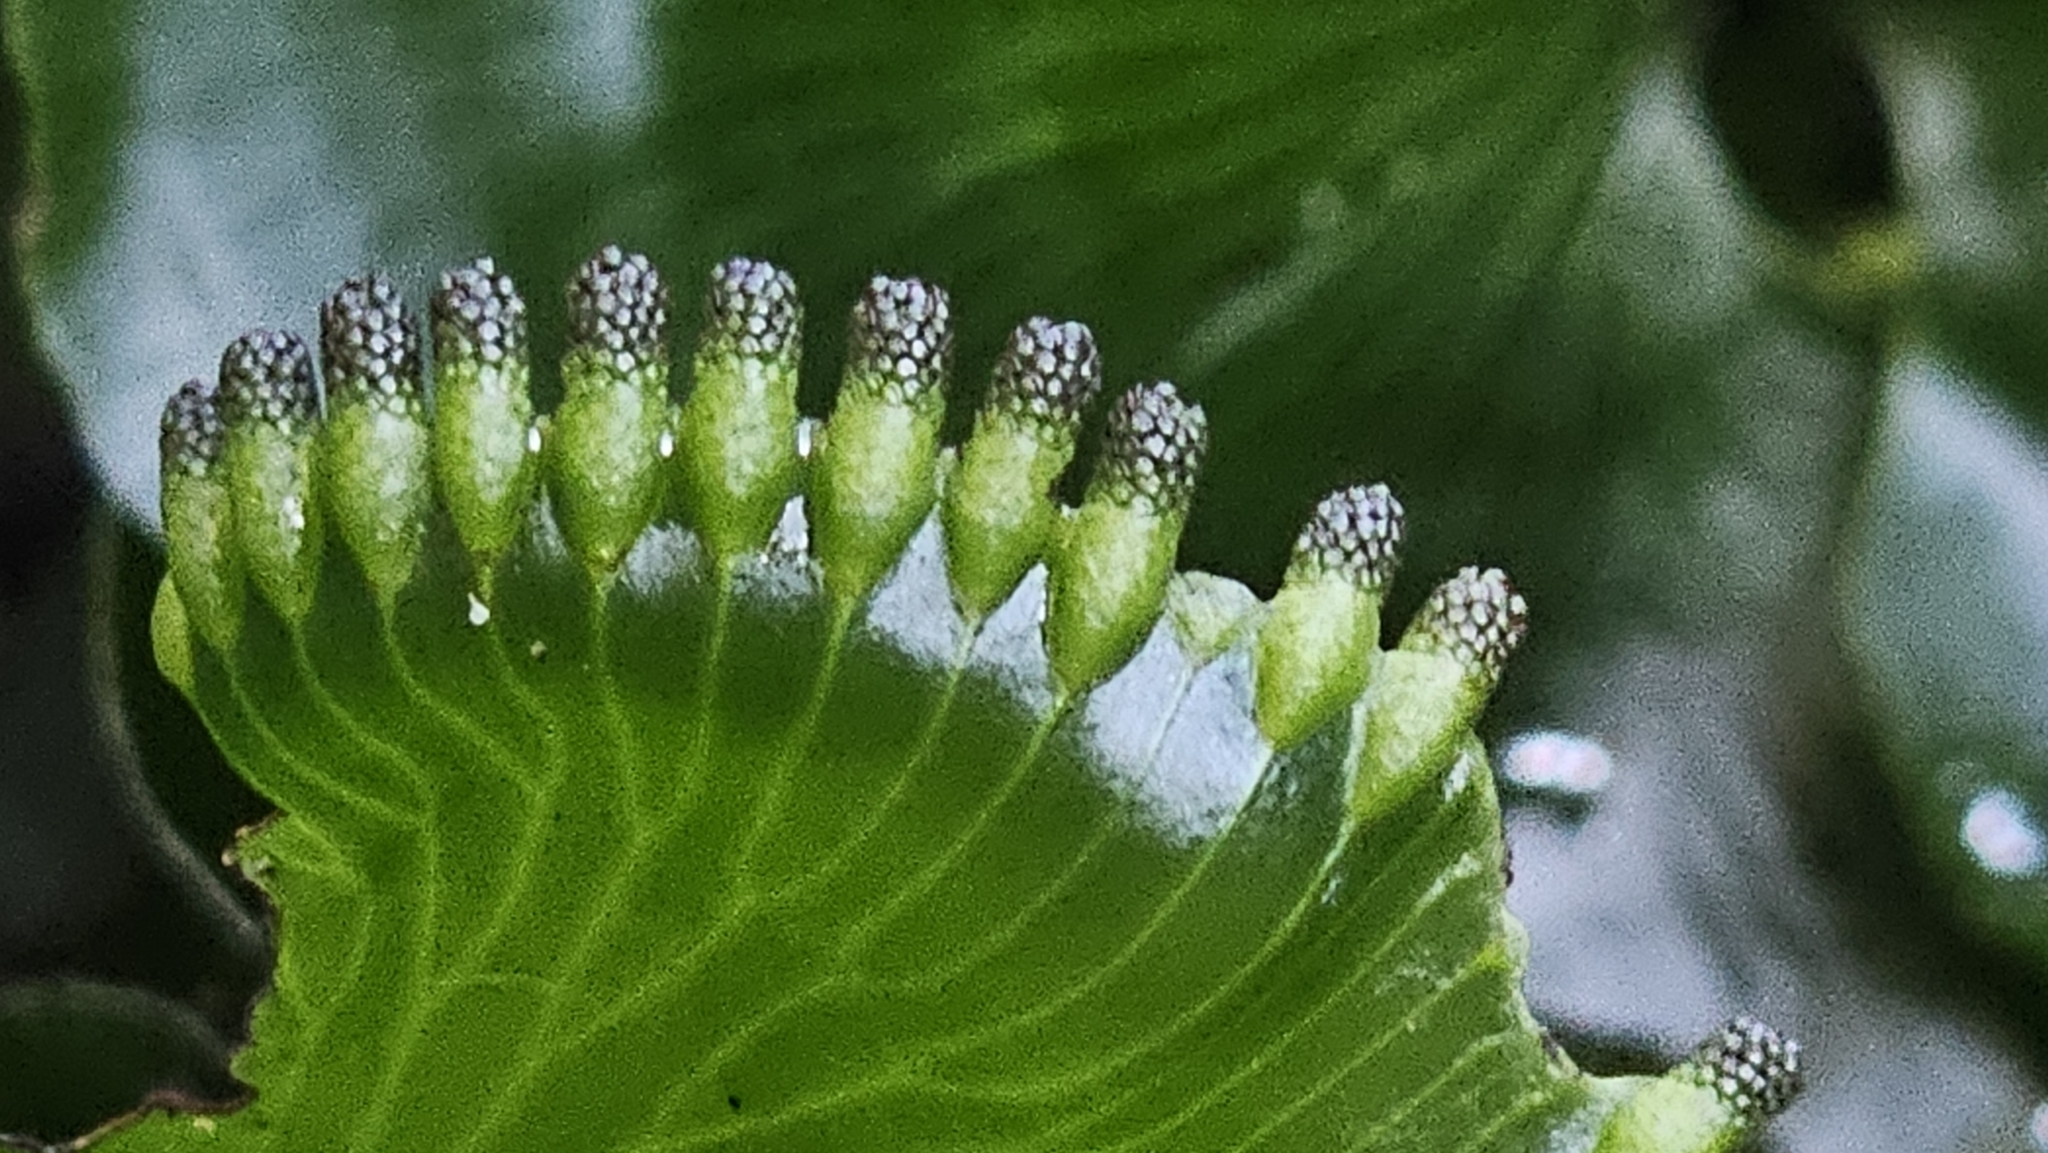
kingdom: Plantae
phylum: Tracheophyta
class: Polypodiopsida
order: Hymenophyllales
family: Hymenophyllaceae
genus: Hymenophyllum
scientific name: Hymenophyllum nephrophyllum
